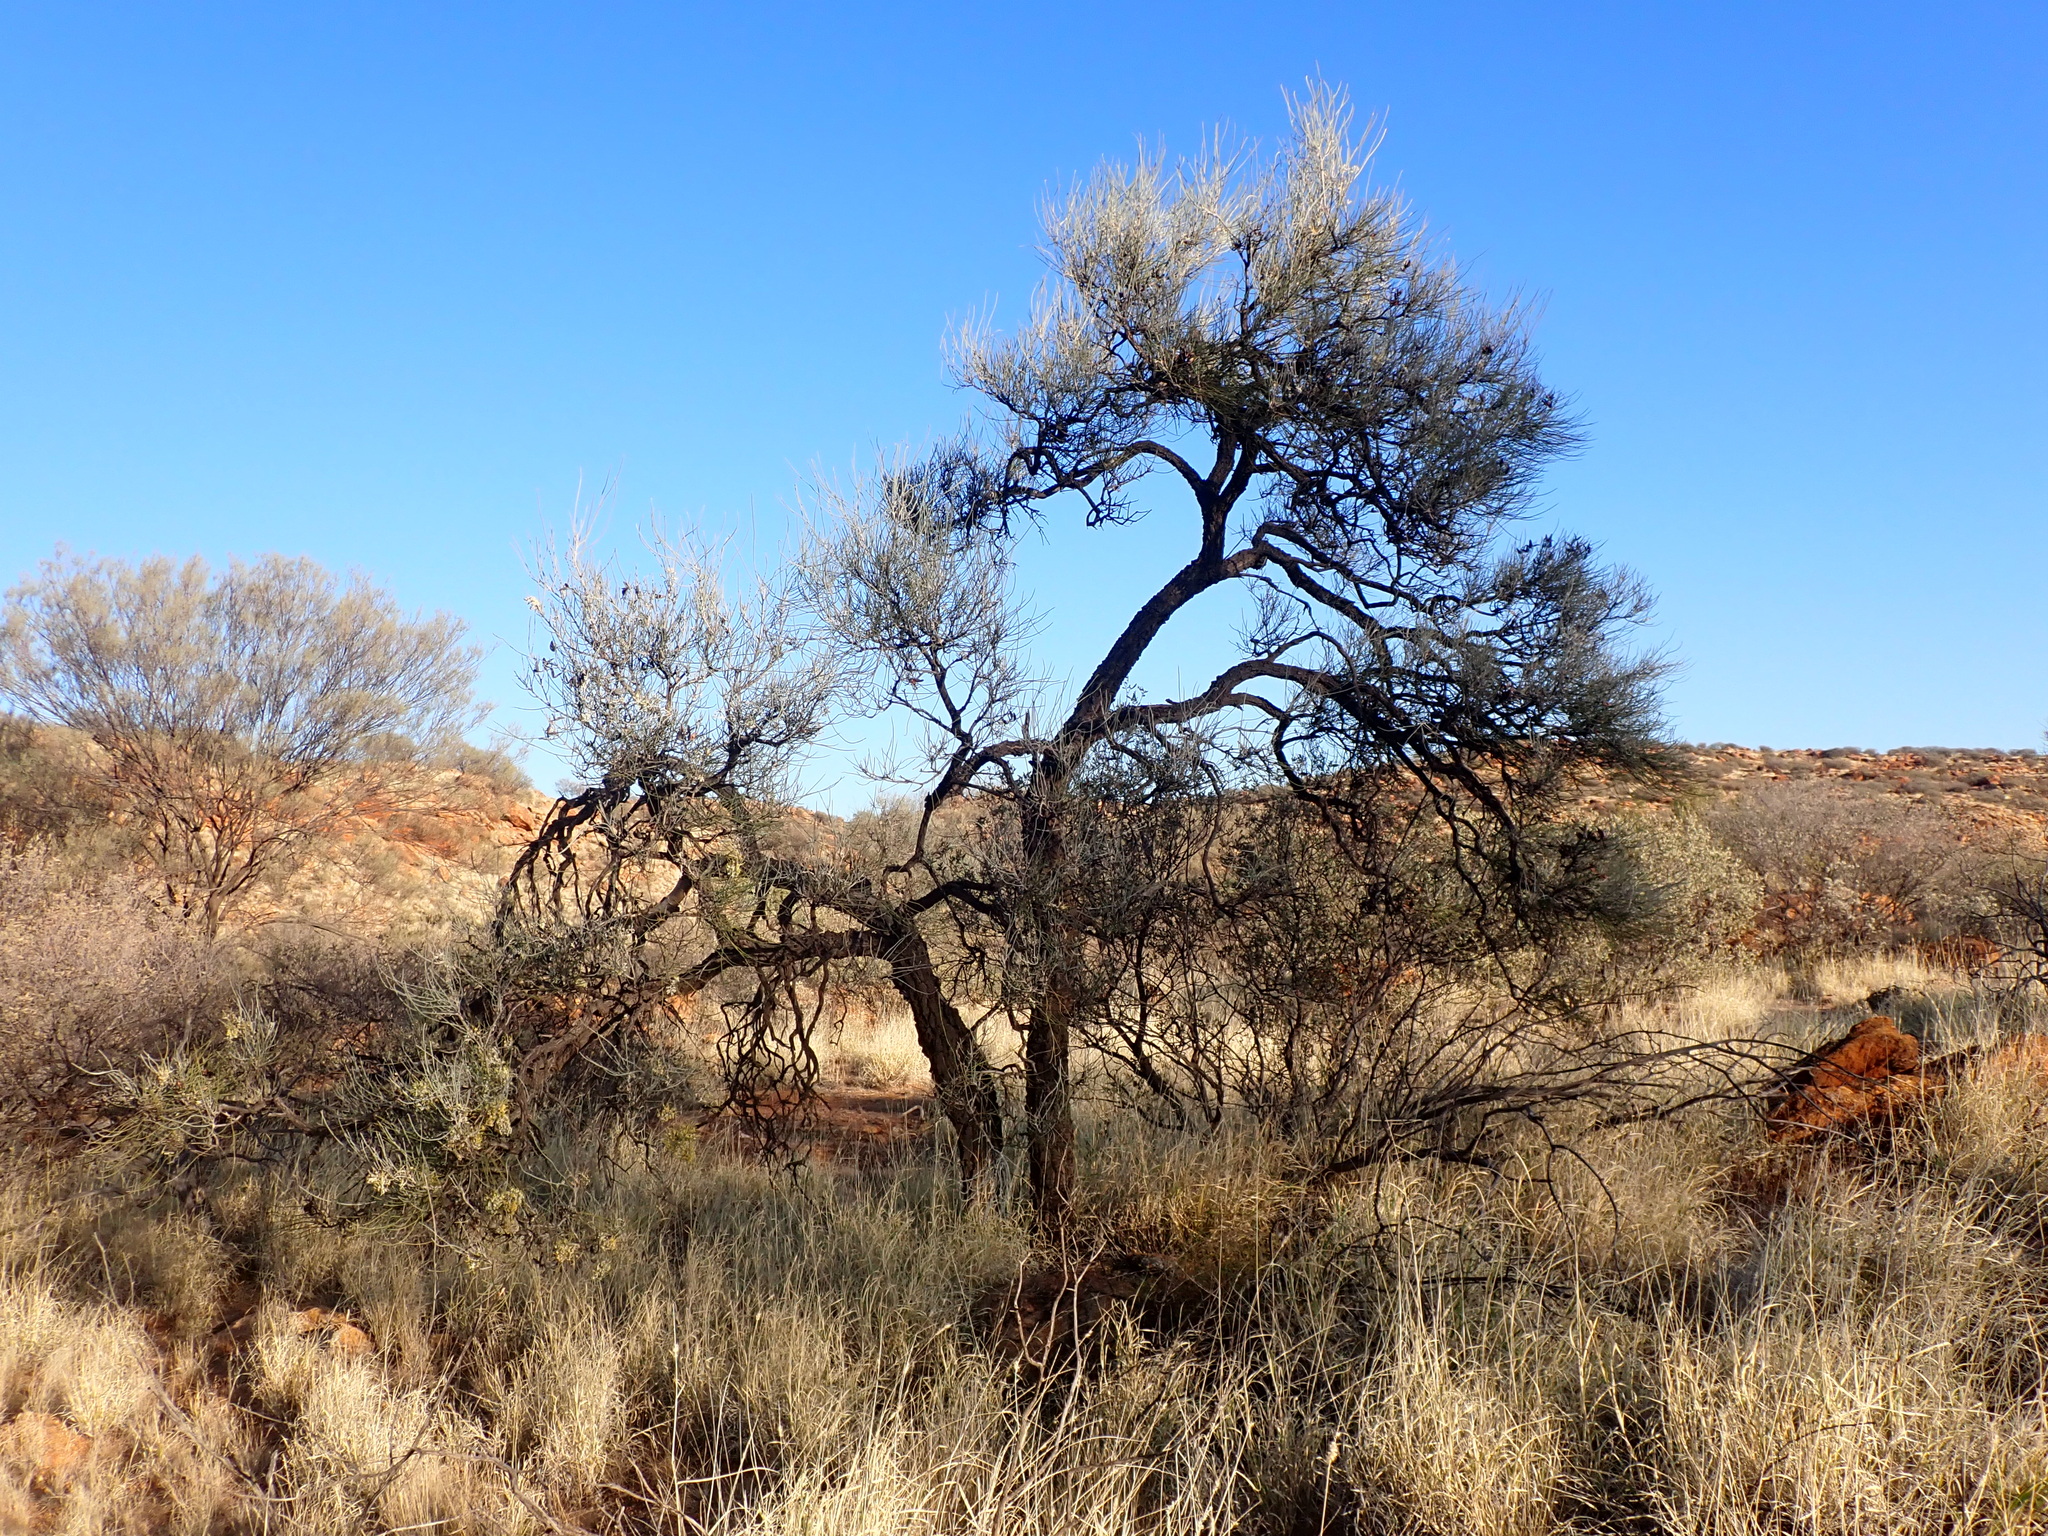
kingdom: Plantae
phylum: Tracheophyta
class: Magnoliopsida
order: Proteales
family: Proteaceae
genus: Hakea
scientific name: Hakea lorea
